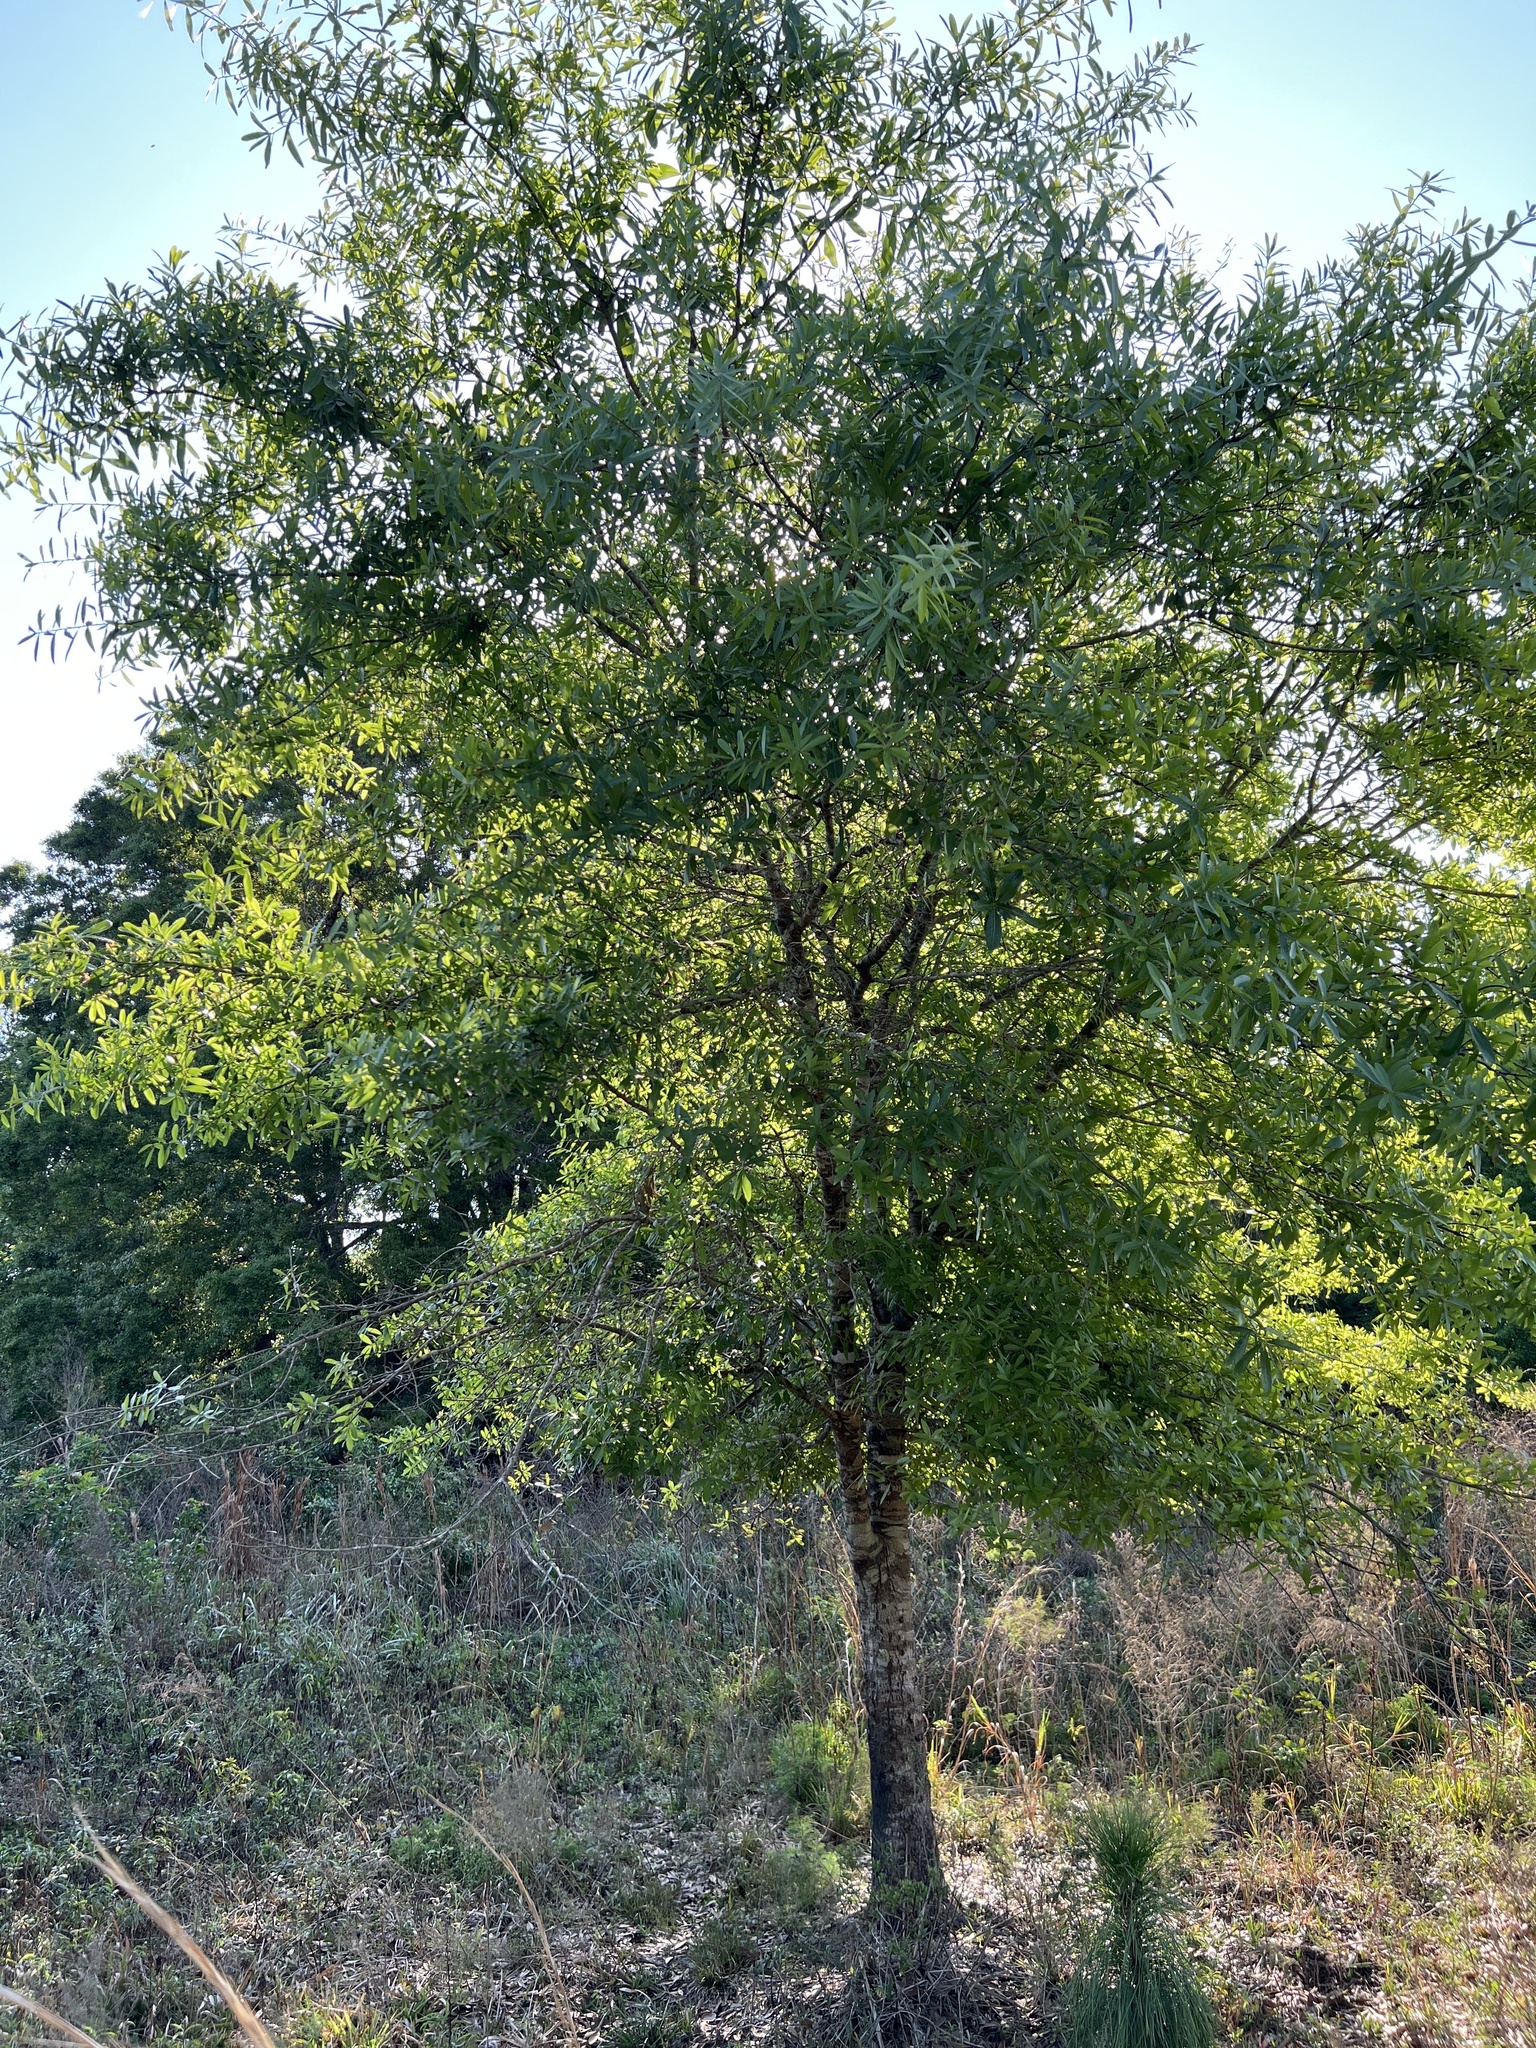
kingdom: Plantae
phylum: Tracheophyta
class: Magnoliopsida
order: Fagales
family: Fagaceae
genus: Quercus
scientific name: Quercus laurifolia
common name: Swamp laurel oak
